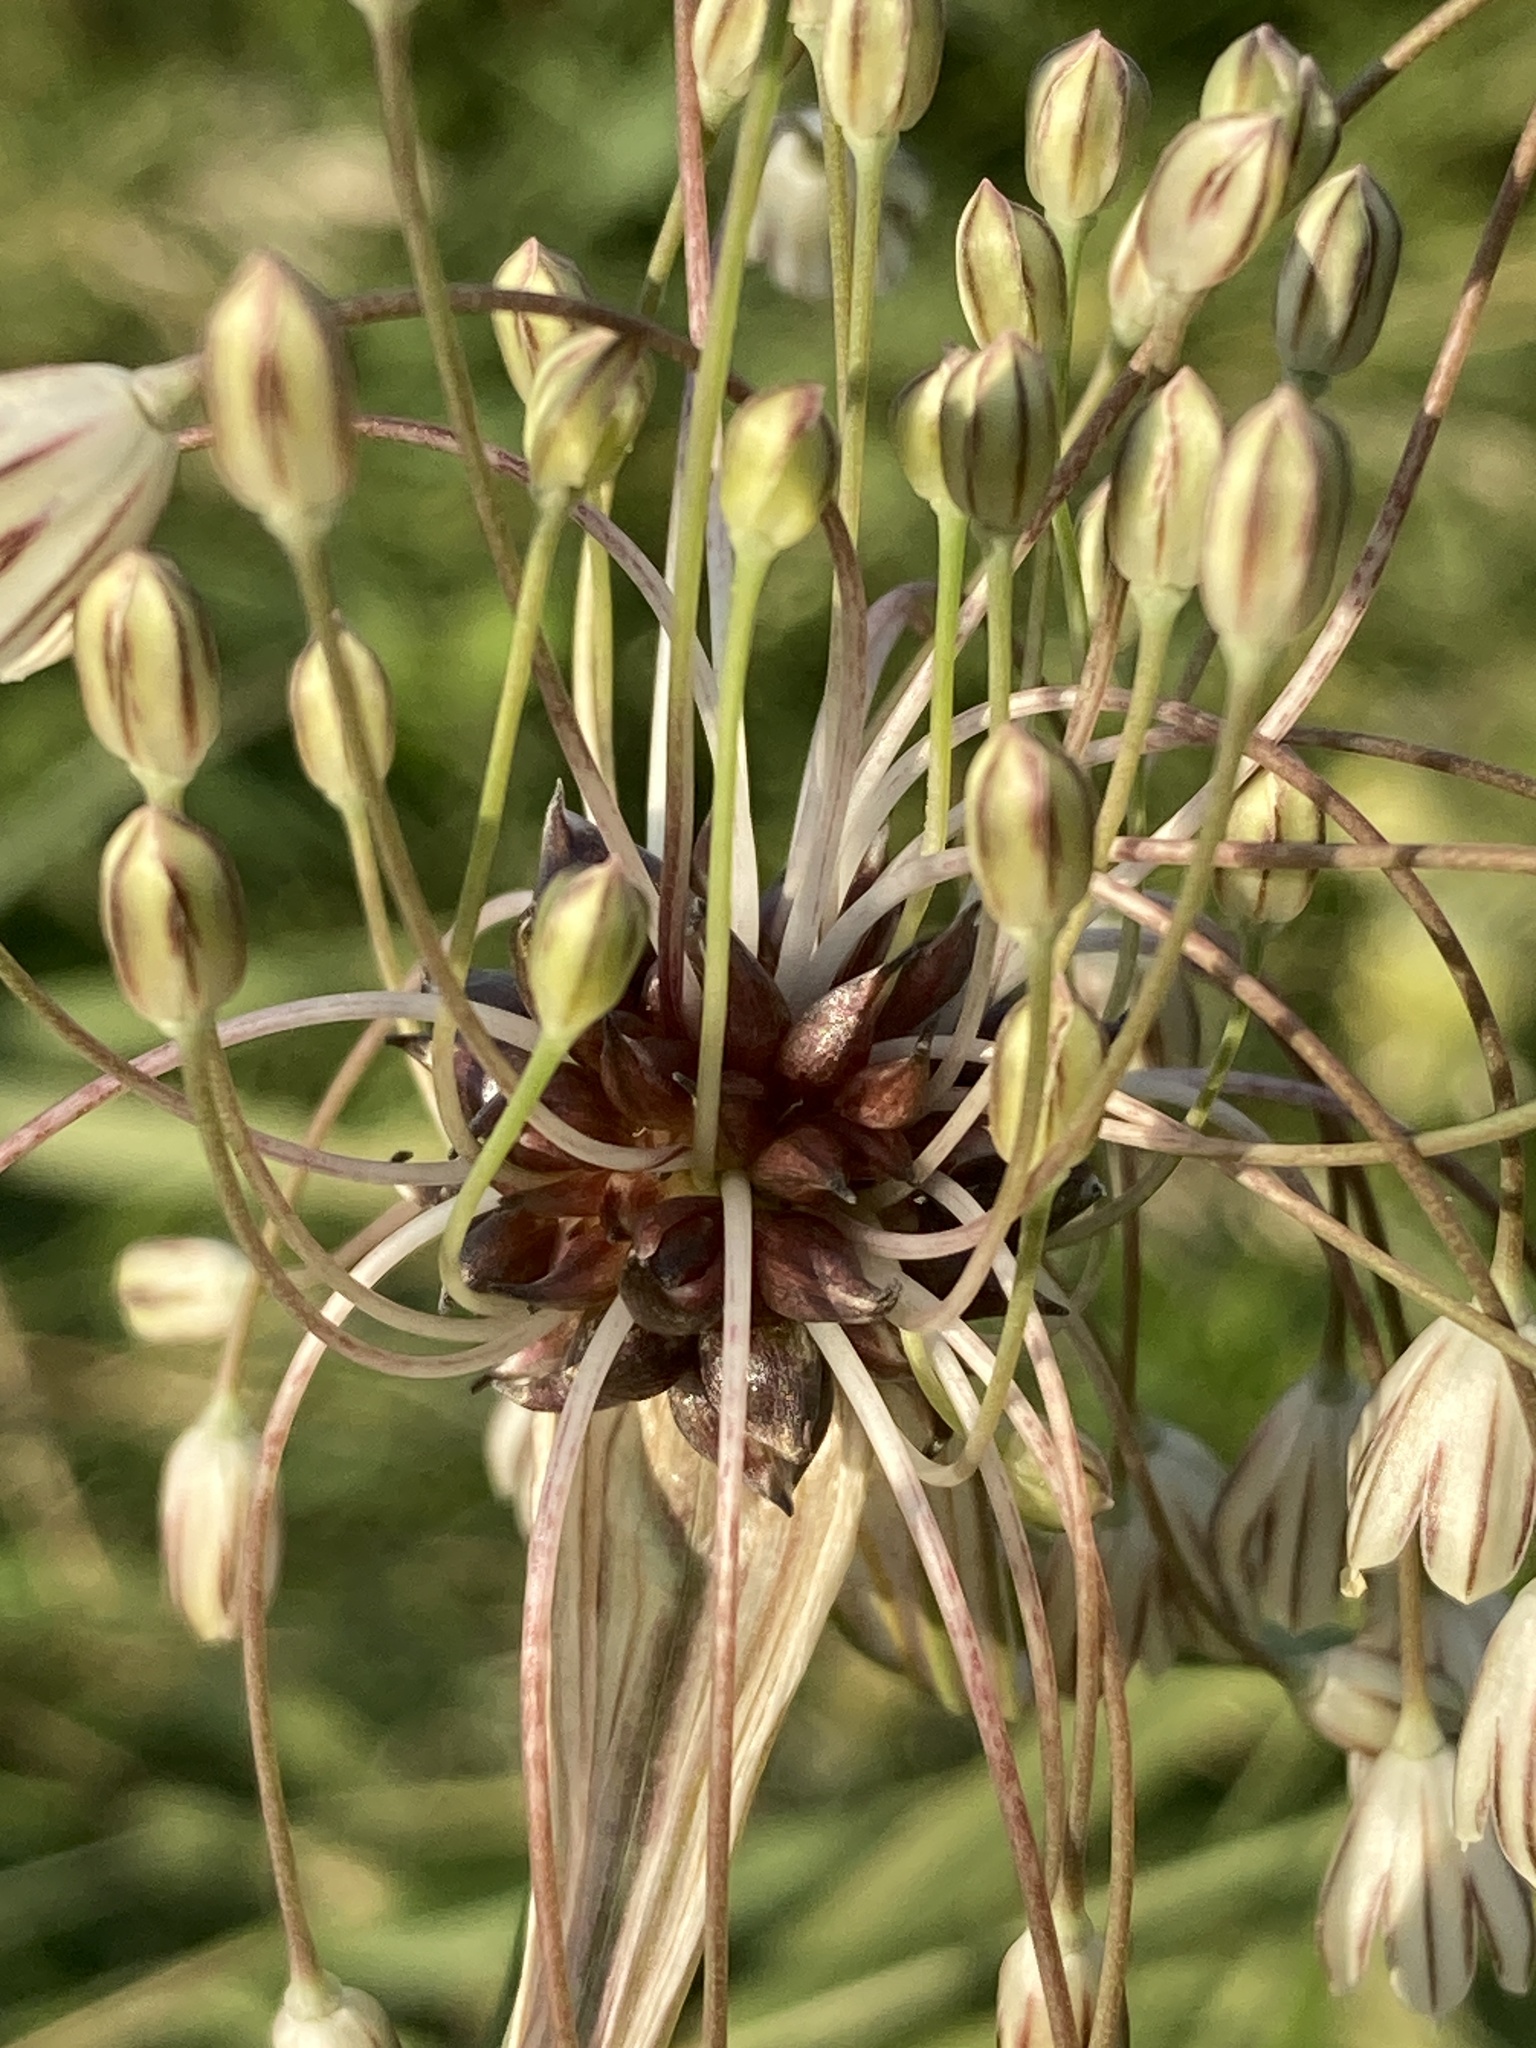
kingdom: Plantae
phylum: Tracheophyta
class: Liliopsida
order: Asparagales
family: Amaryllidaceae
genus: Allium
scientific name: Allium oleraceum
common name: Field garlic
